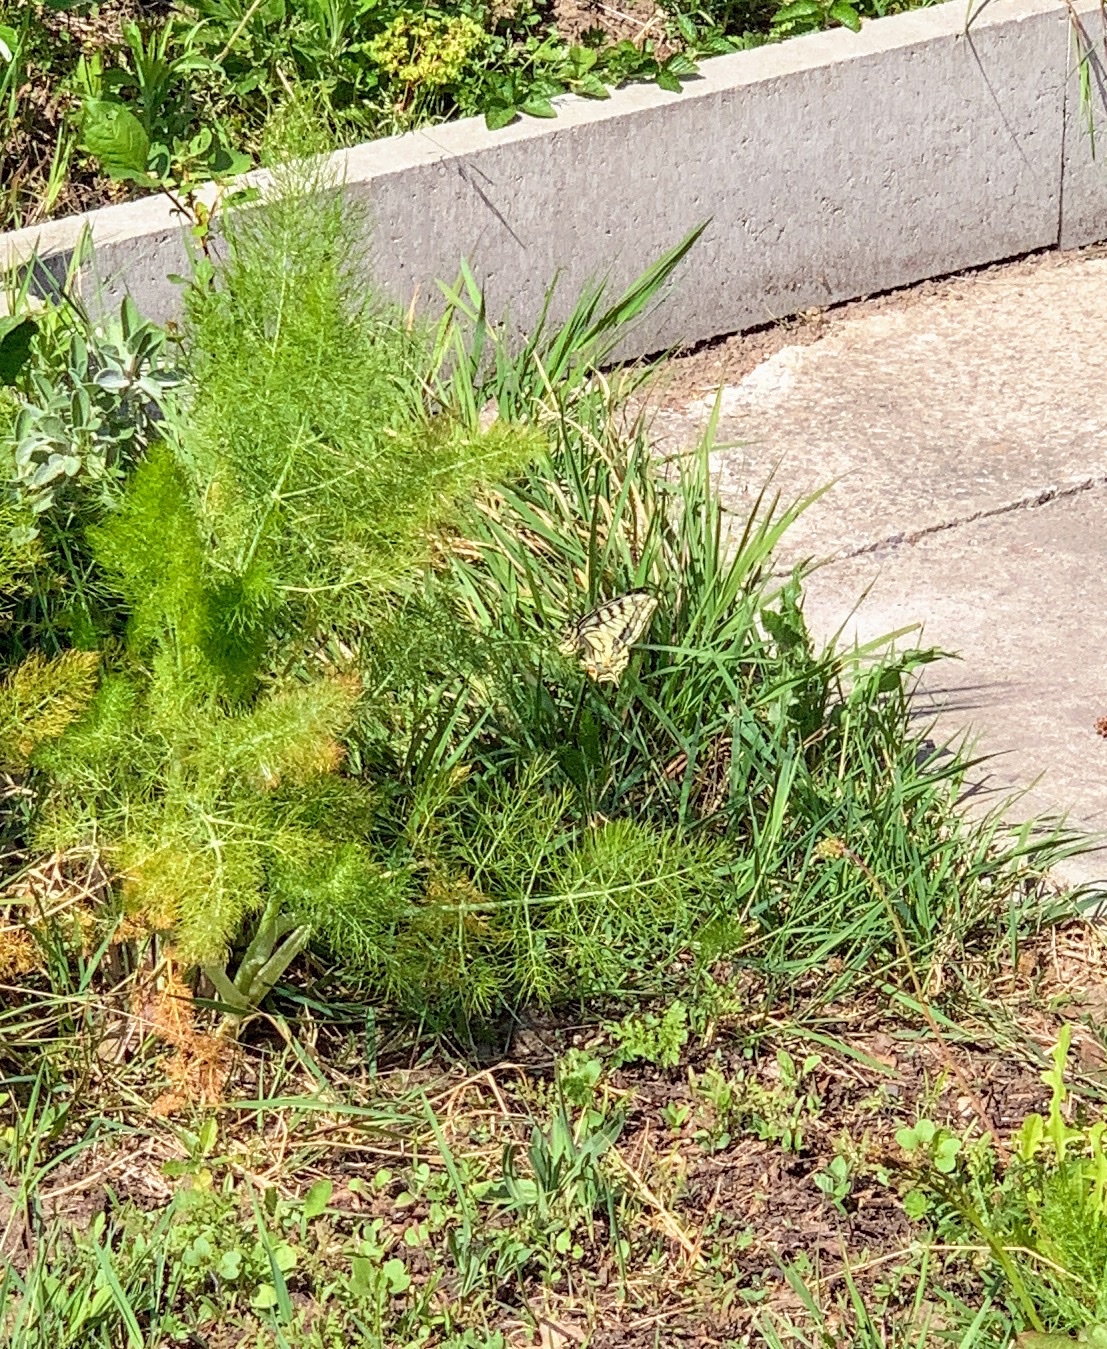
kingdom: Animalia
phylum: Arthropoda
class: Insecta
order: Lepidoptera
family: Papilionidae
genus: Papilio
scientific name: Papilio machaon
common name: Swallowtail
